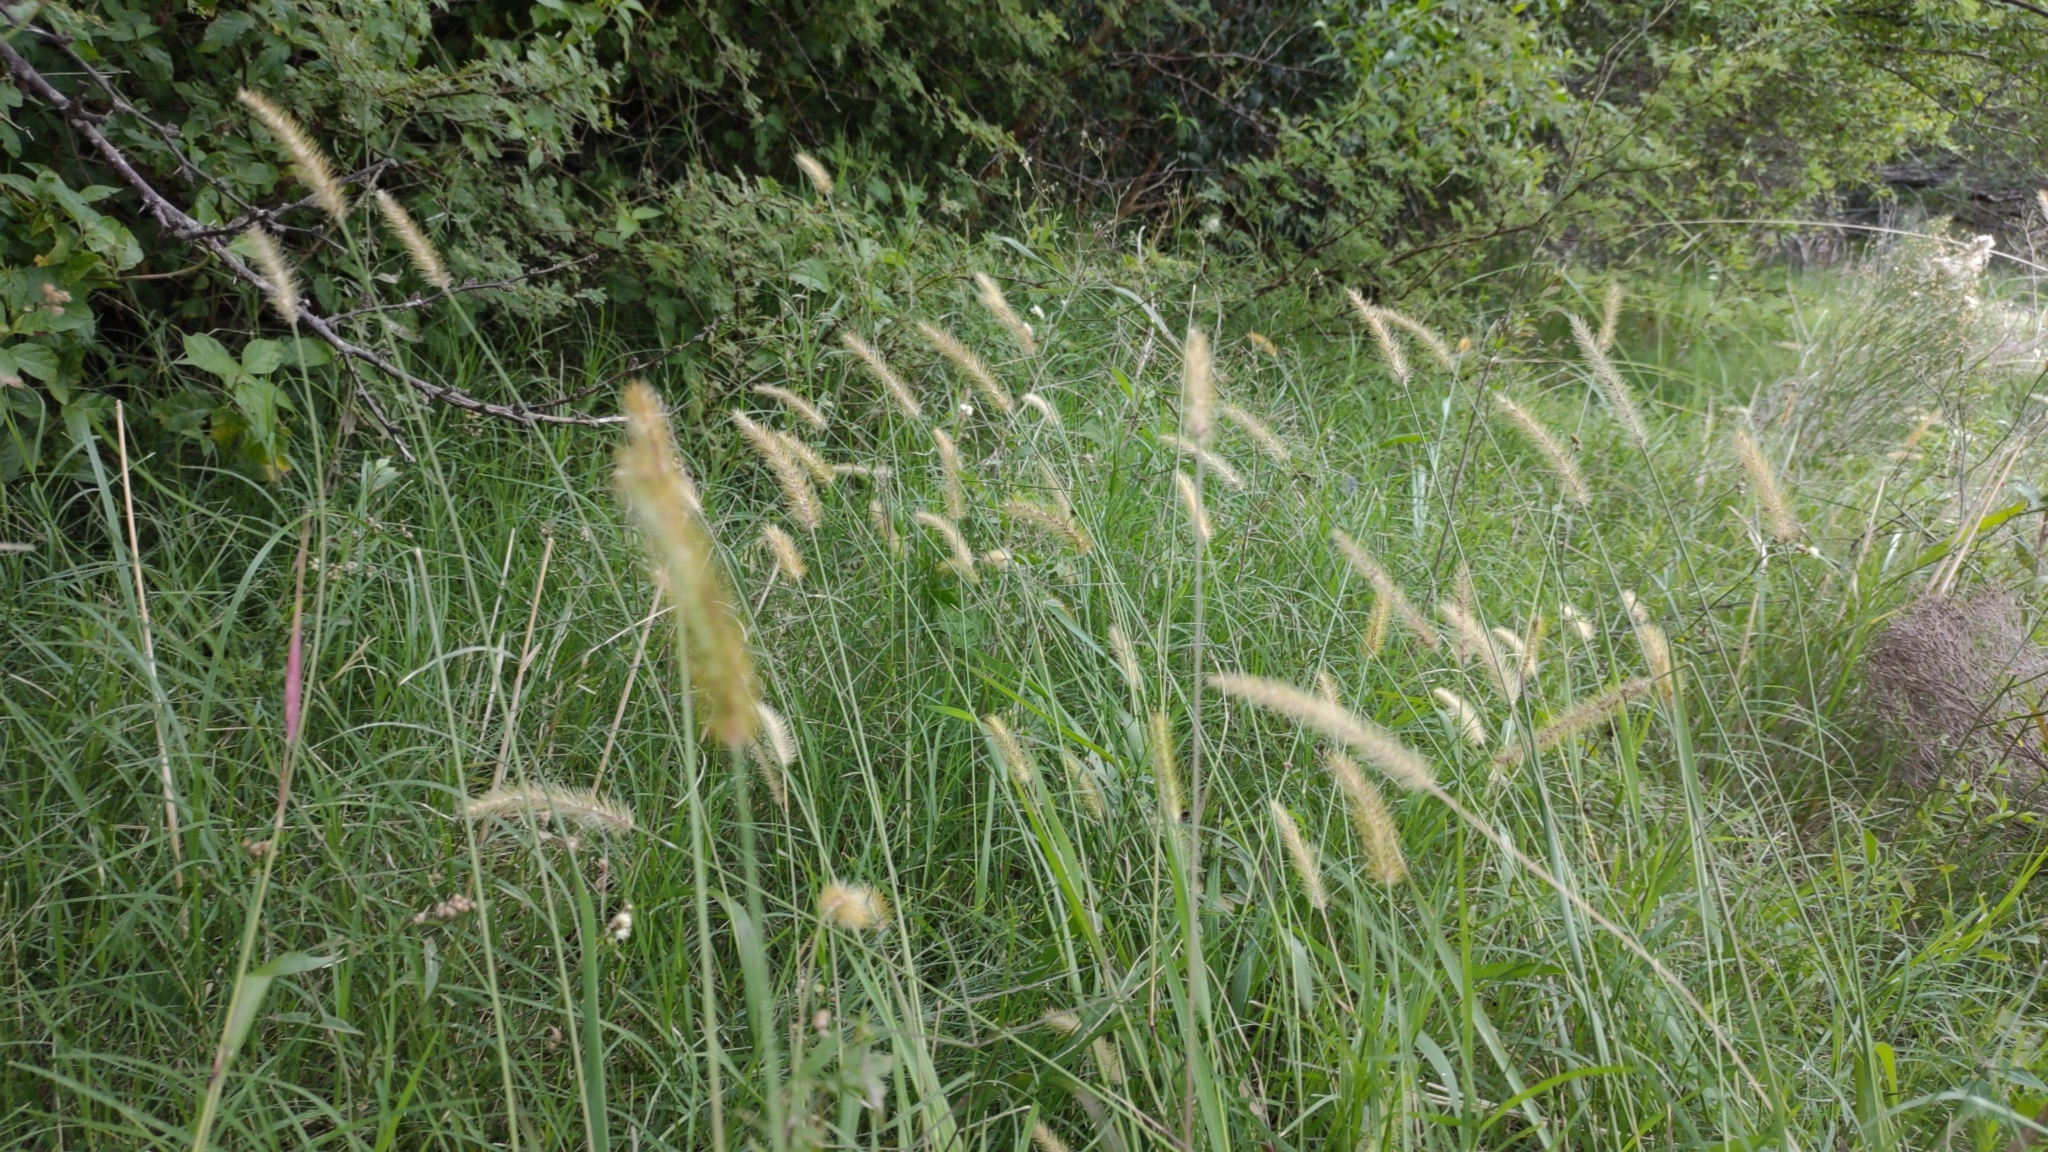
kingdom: Plantae
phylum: Tracheophyta
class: Liliopsida
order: Poales
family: Poaceae
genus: Setaria
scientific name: Setaria parviflora
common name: Knotroot bristle-grass
